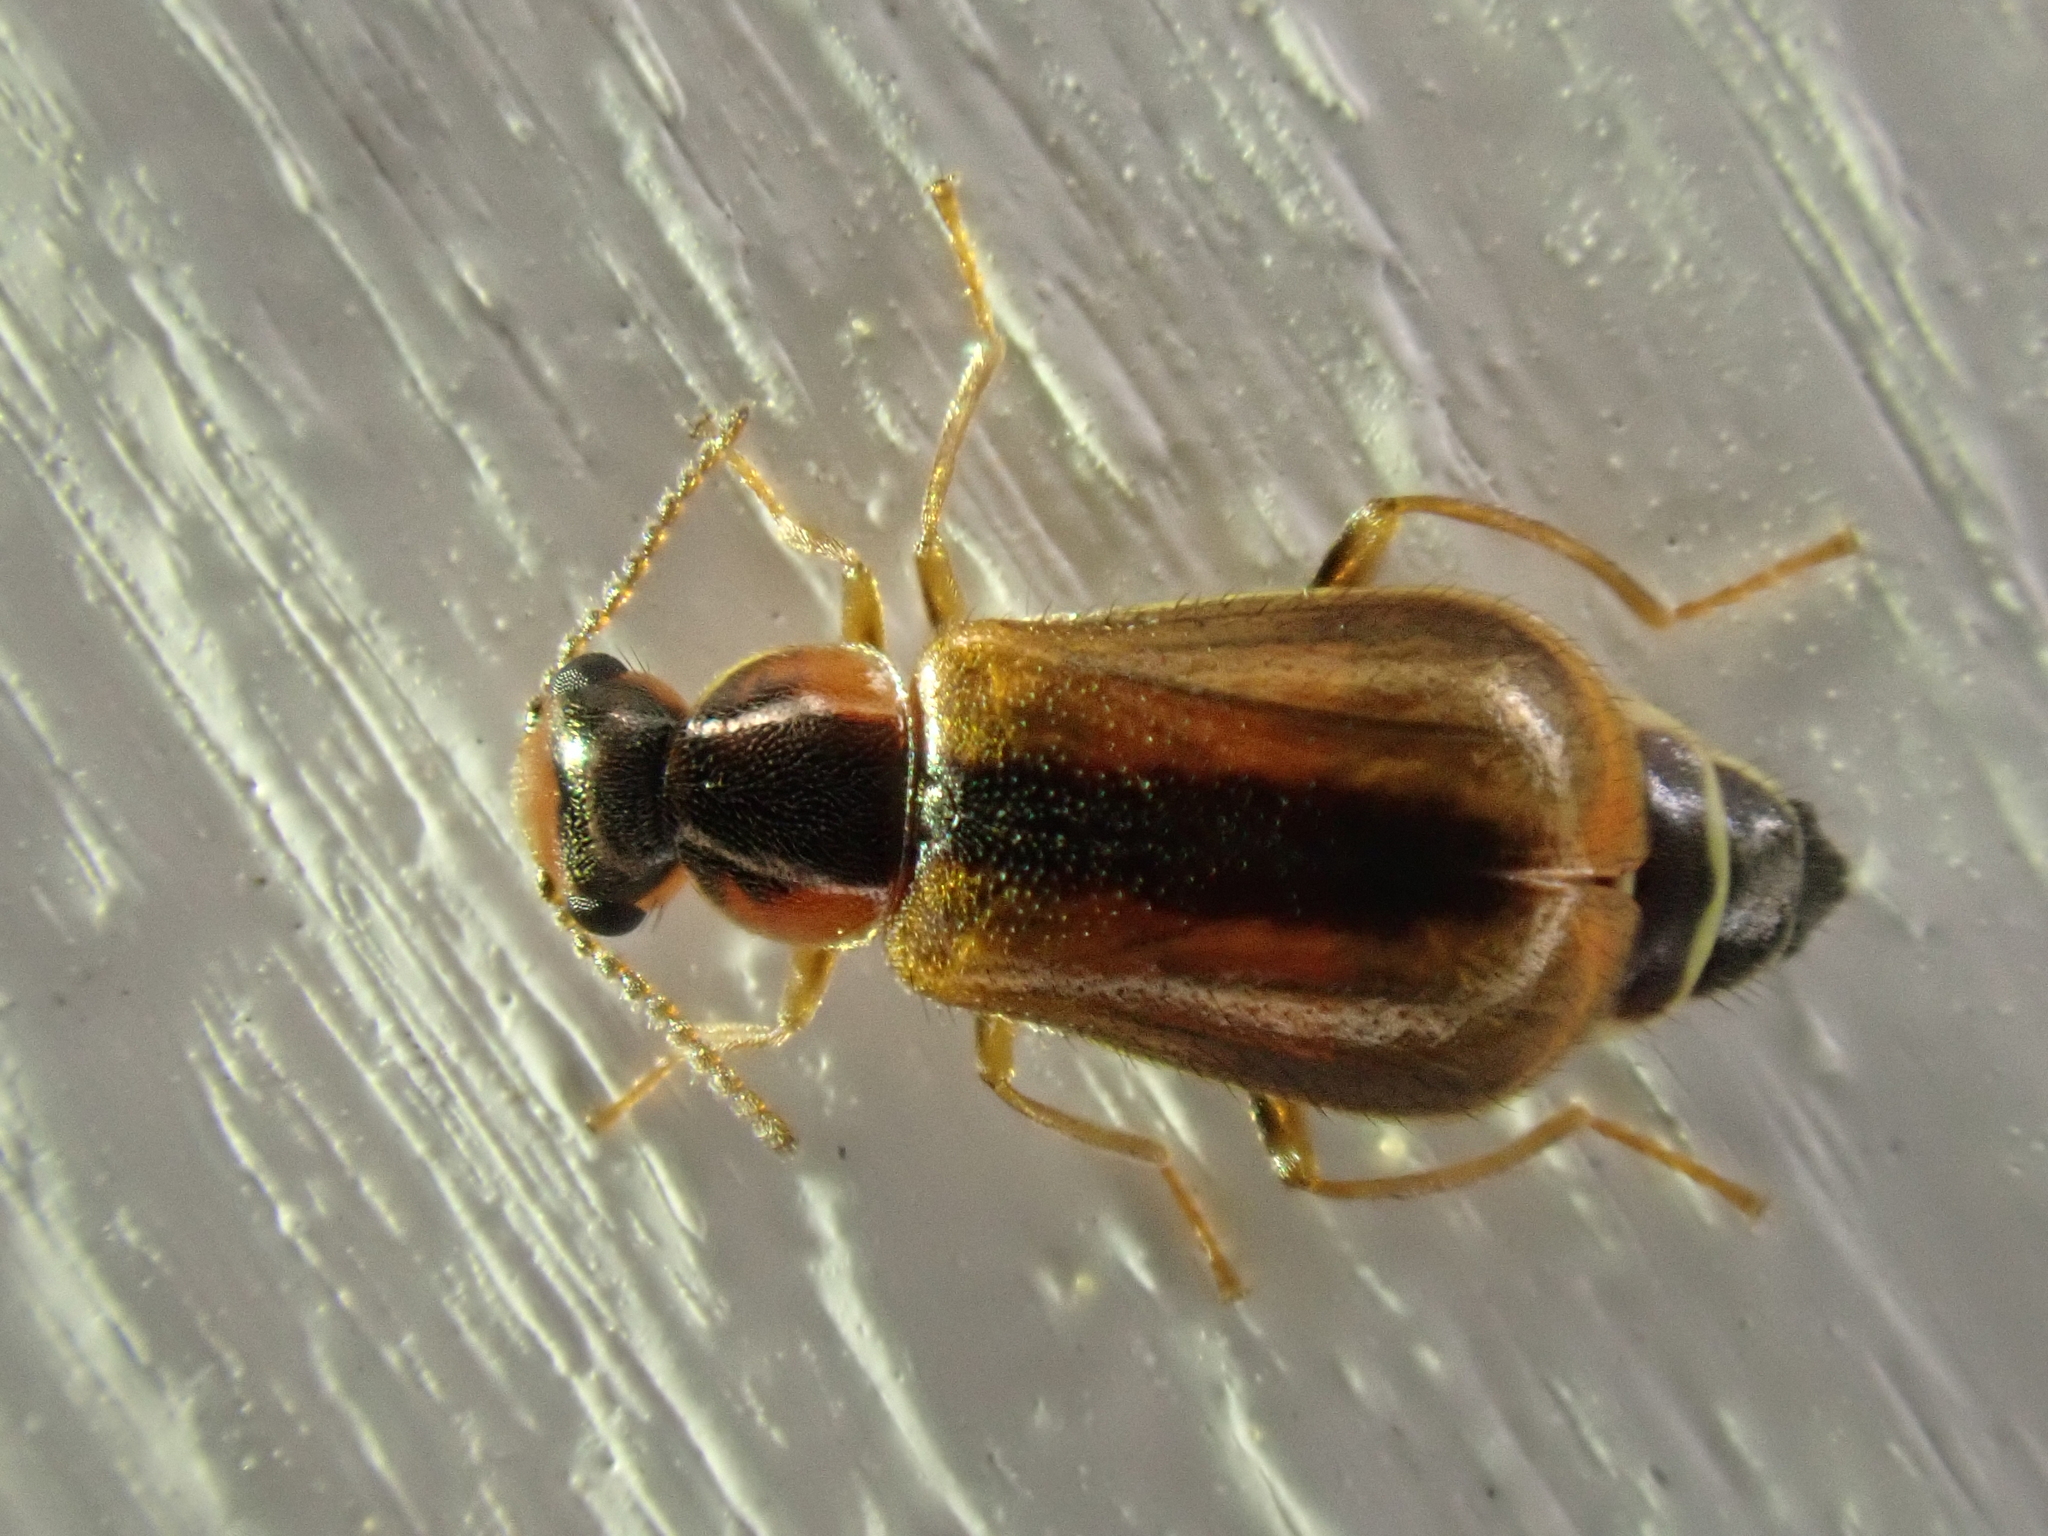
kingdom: Animalia
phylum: Arthropoda
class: Insecta
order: Coleoptera
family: Malachiidae
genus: Attalus
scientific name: Attalus
